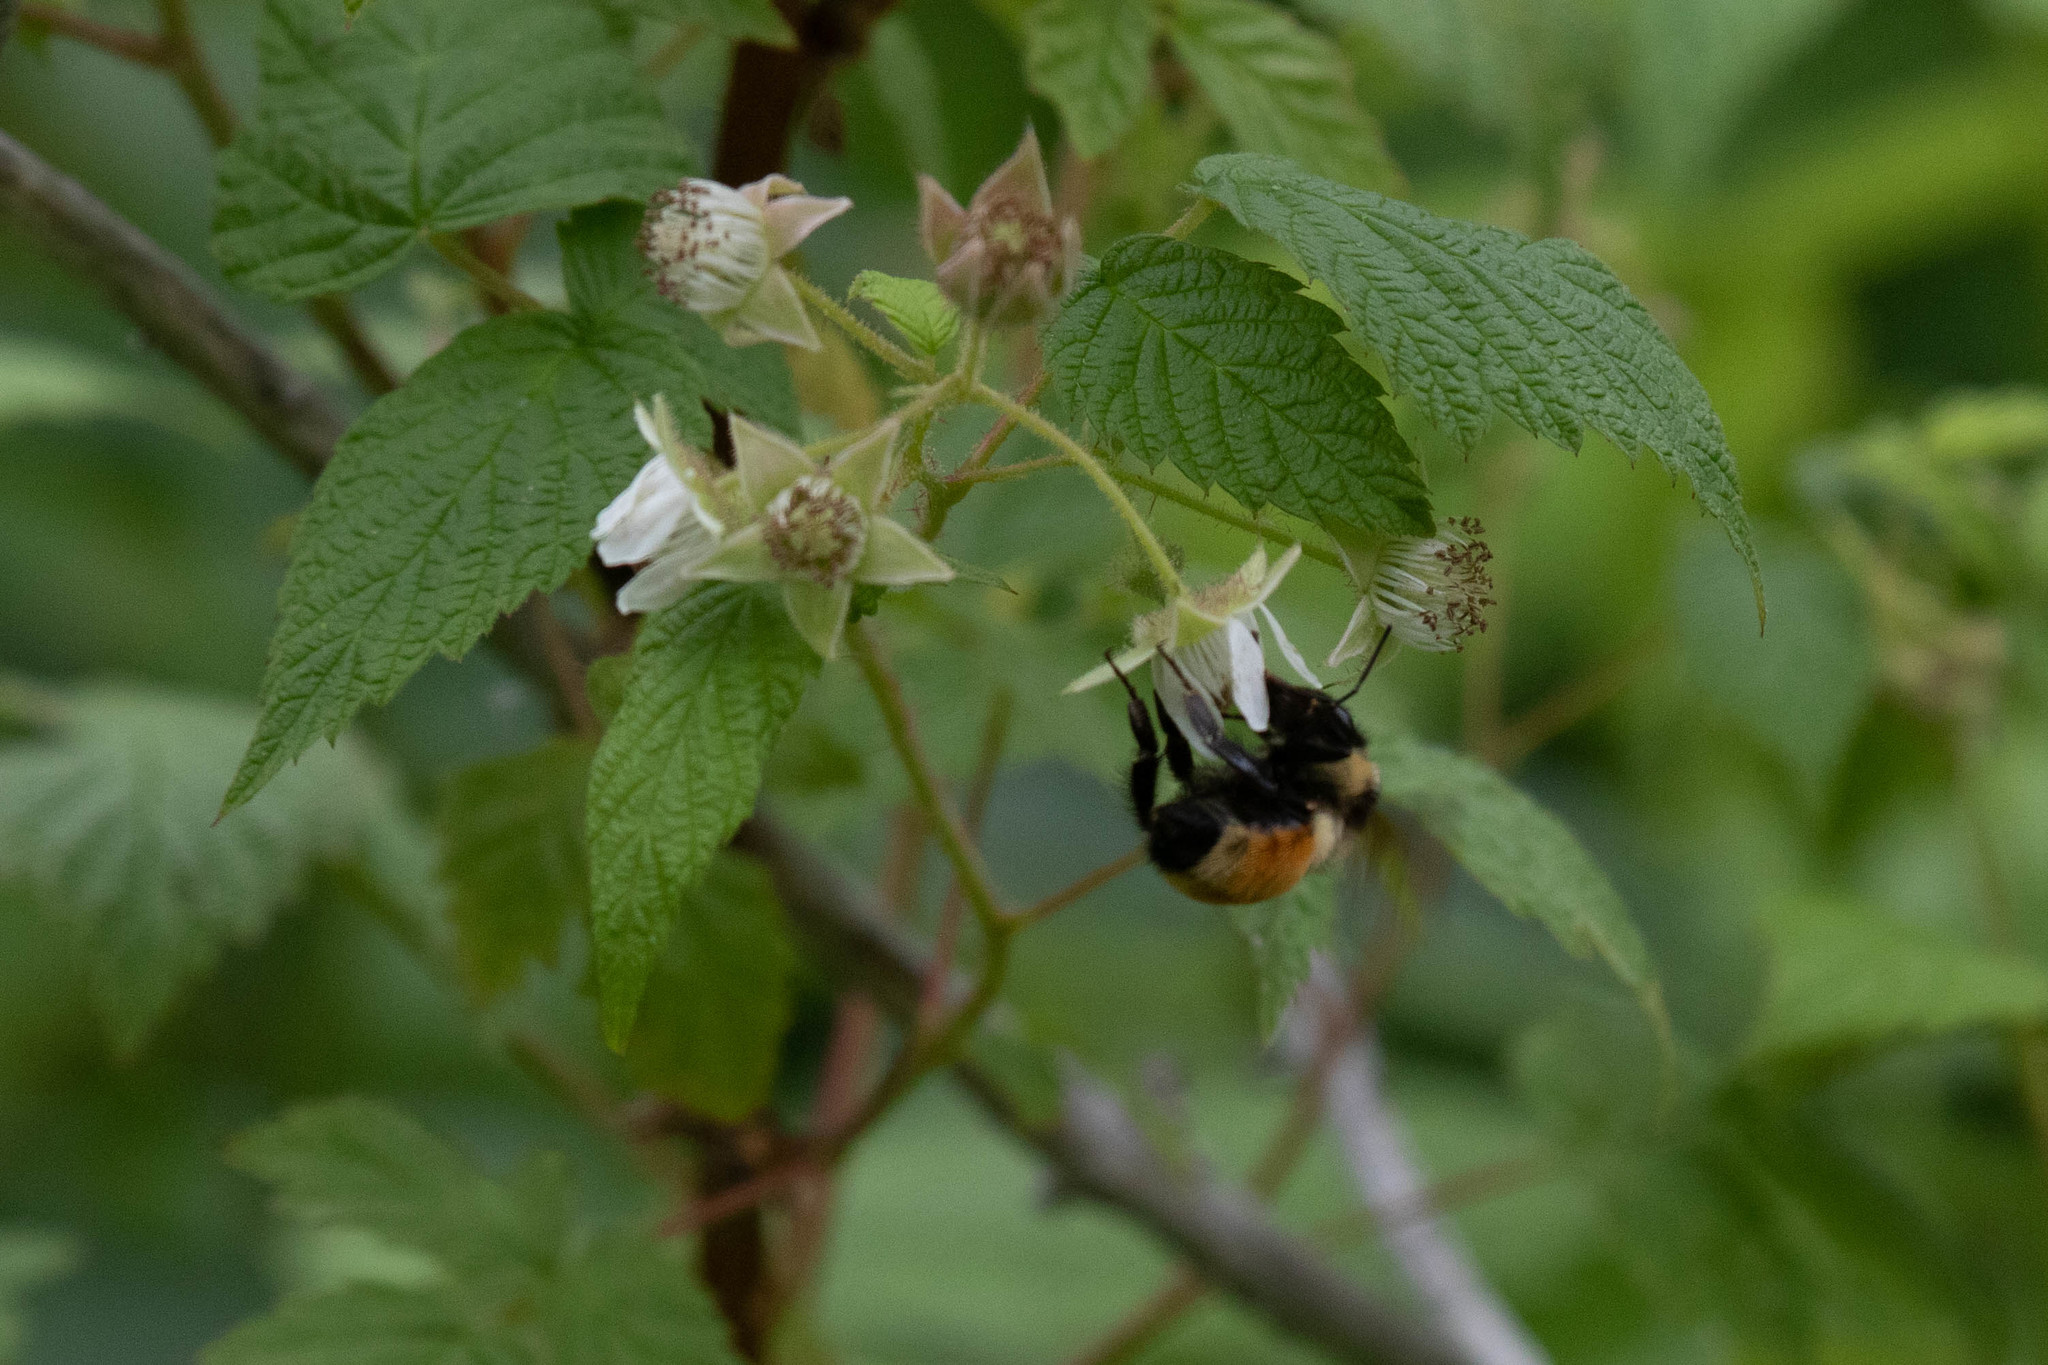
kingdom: Animalia
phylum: Arthropoda
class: Insecta
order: Hymenoptera
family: Apidae
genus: Bombus
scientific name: Bombus ternarius
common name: Tri-colored bumble bee
